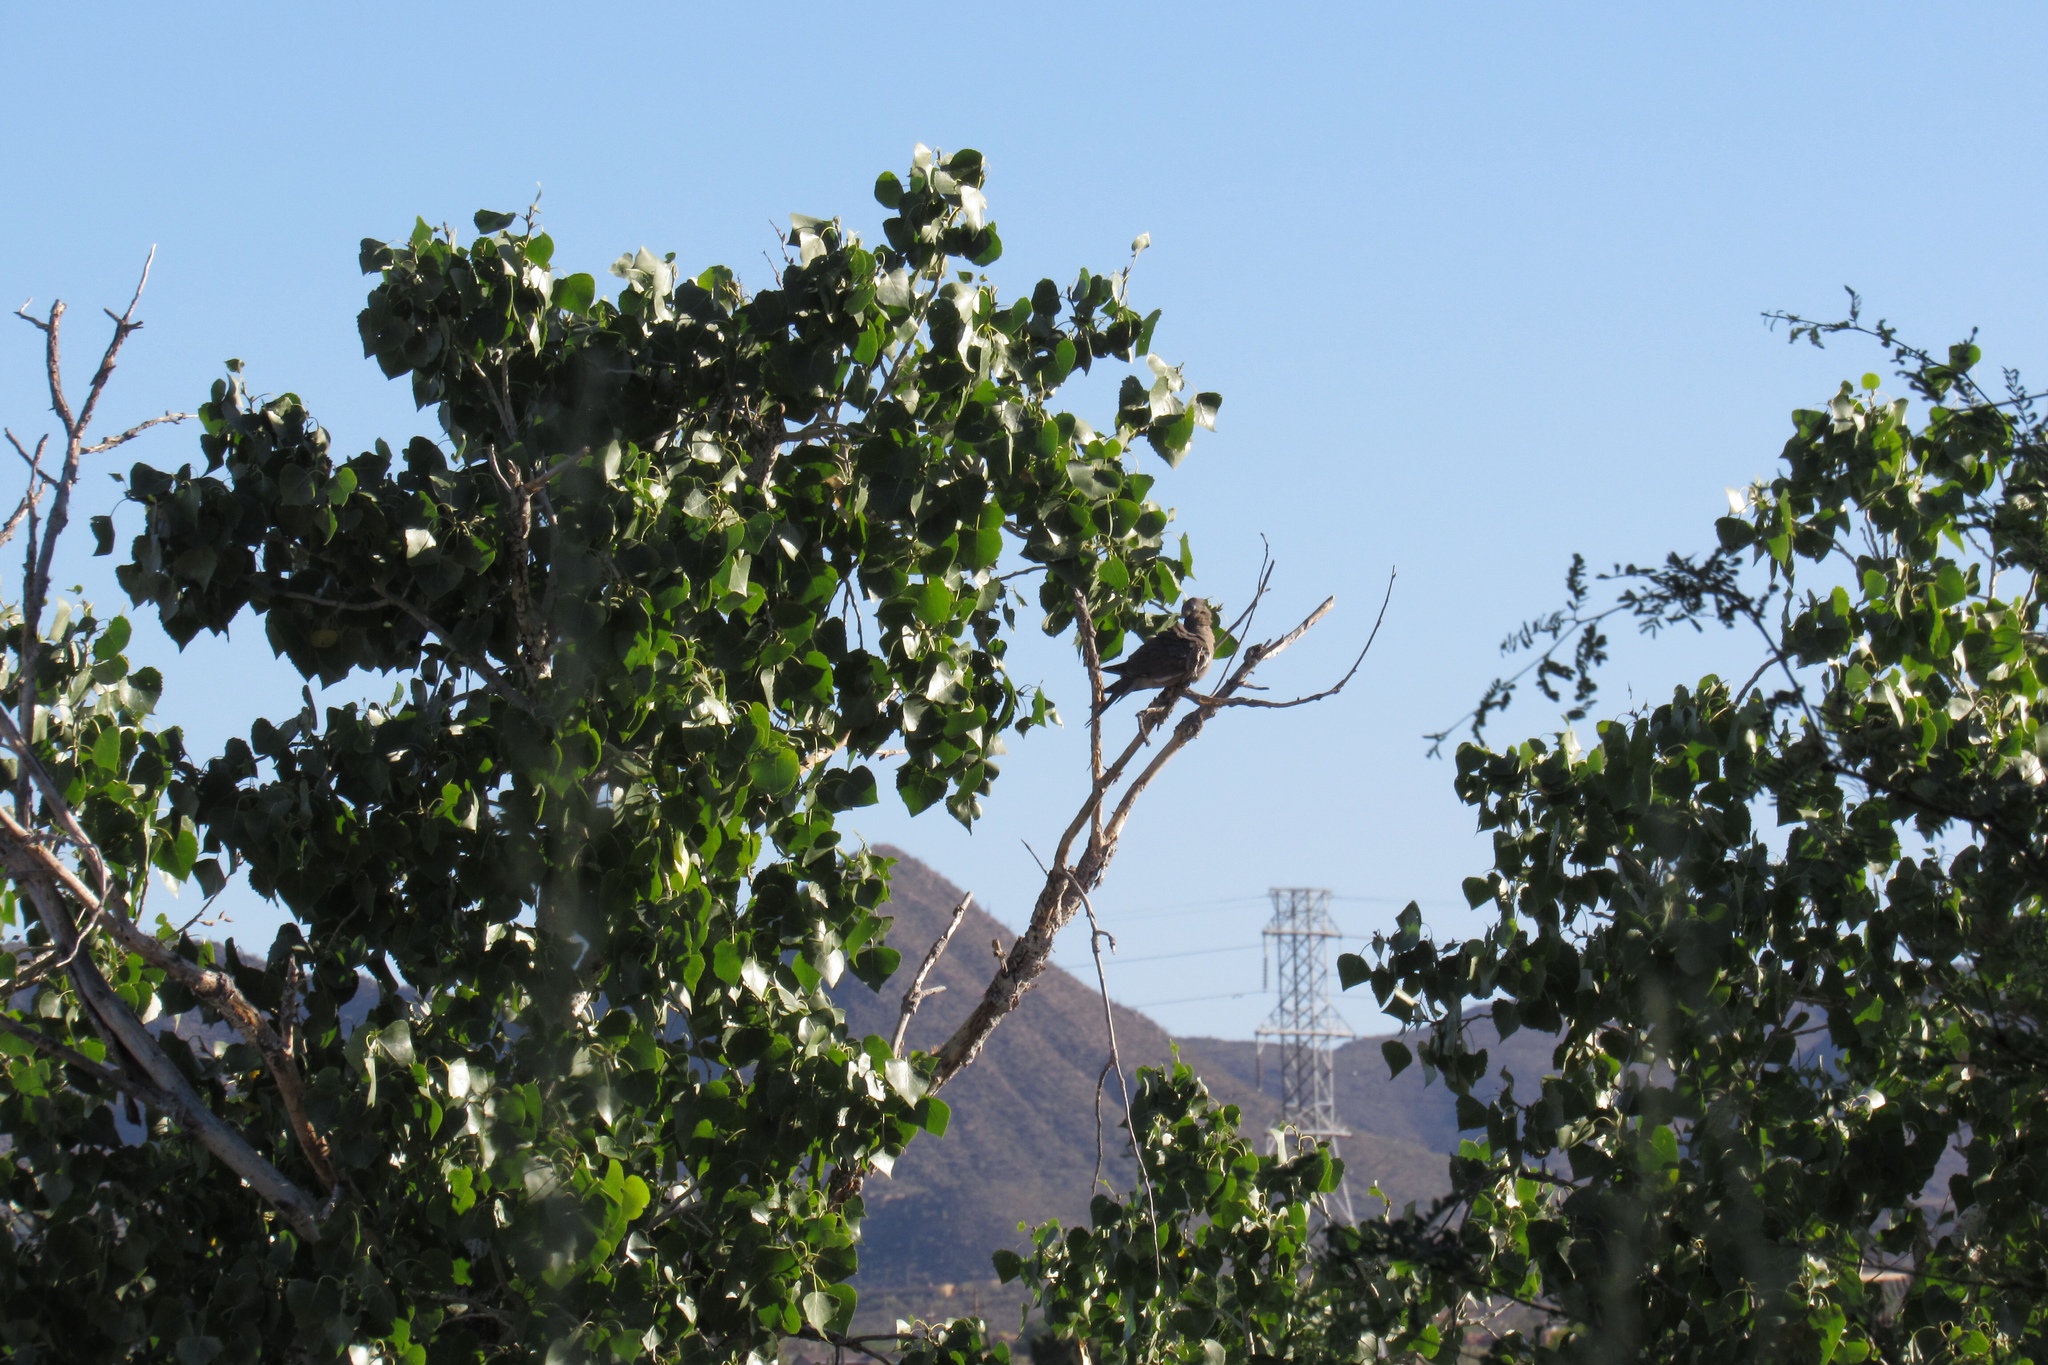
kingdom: Animalia
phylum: Chordata
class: Aves
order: Columbiformes
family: Columbidae
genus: Zenaida
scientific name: Zenaida asiatica
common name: White-winged dove
